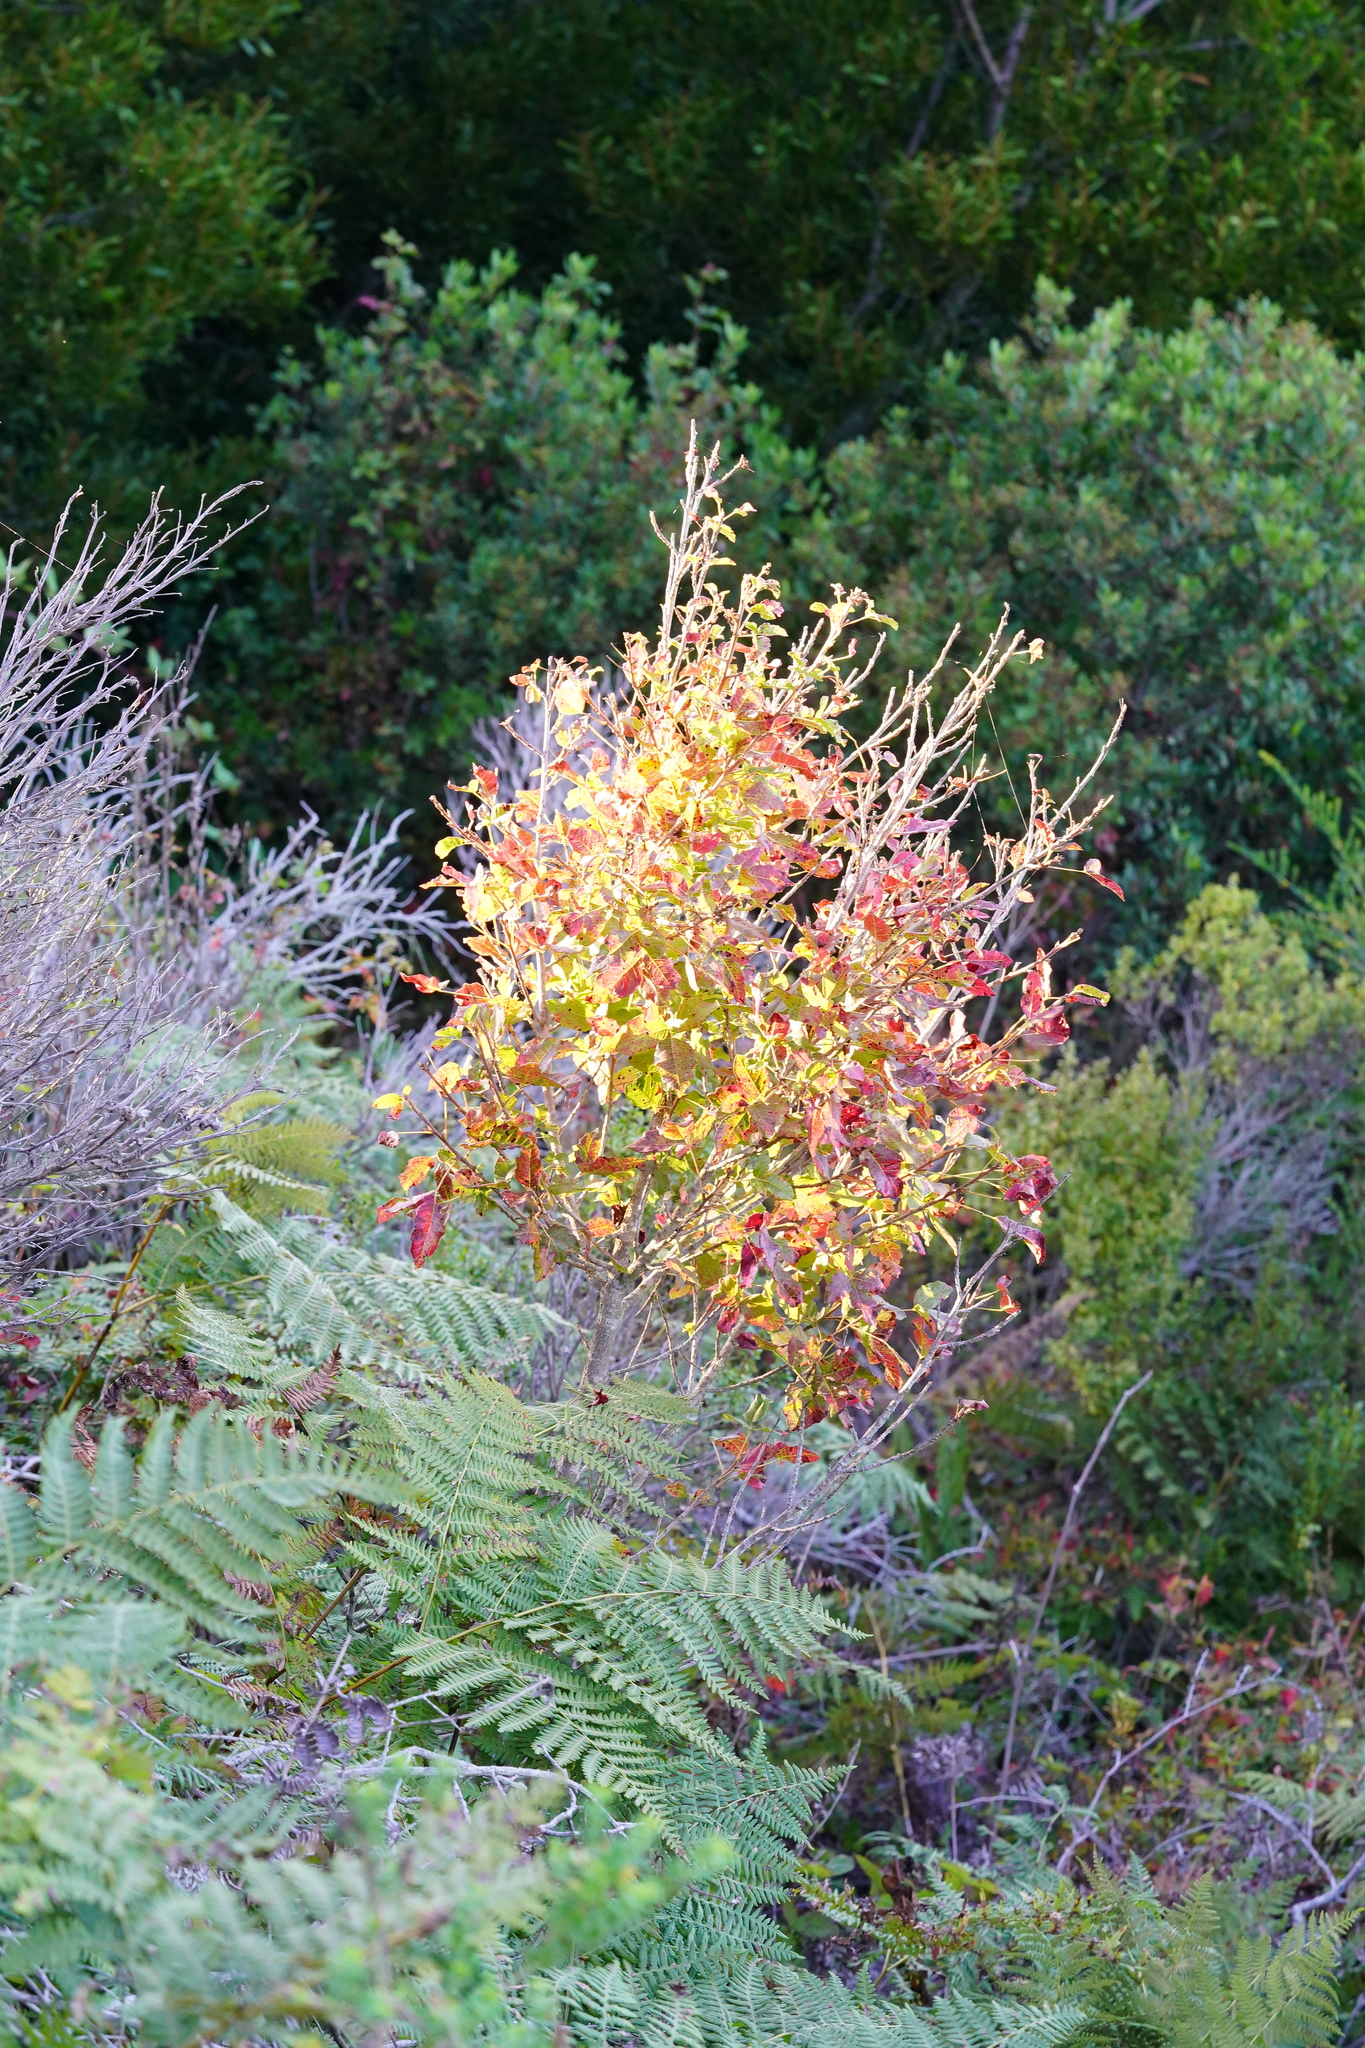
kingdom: Plantae
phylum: Tracheophyta
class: Magnoliopsida
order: Sapindales
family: Anacardiaceae
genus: Toxicodendron
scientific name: Toxicodendron diversilobum
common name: Pacific poison-oak
